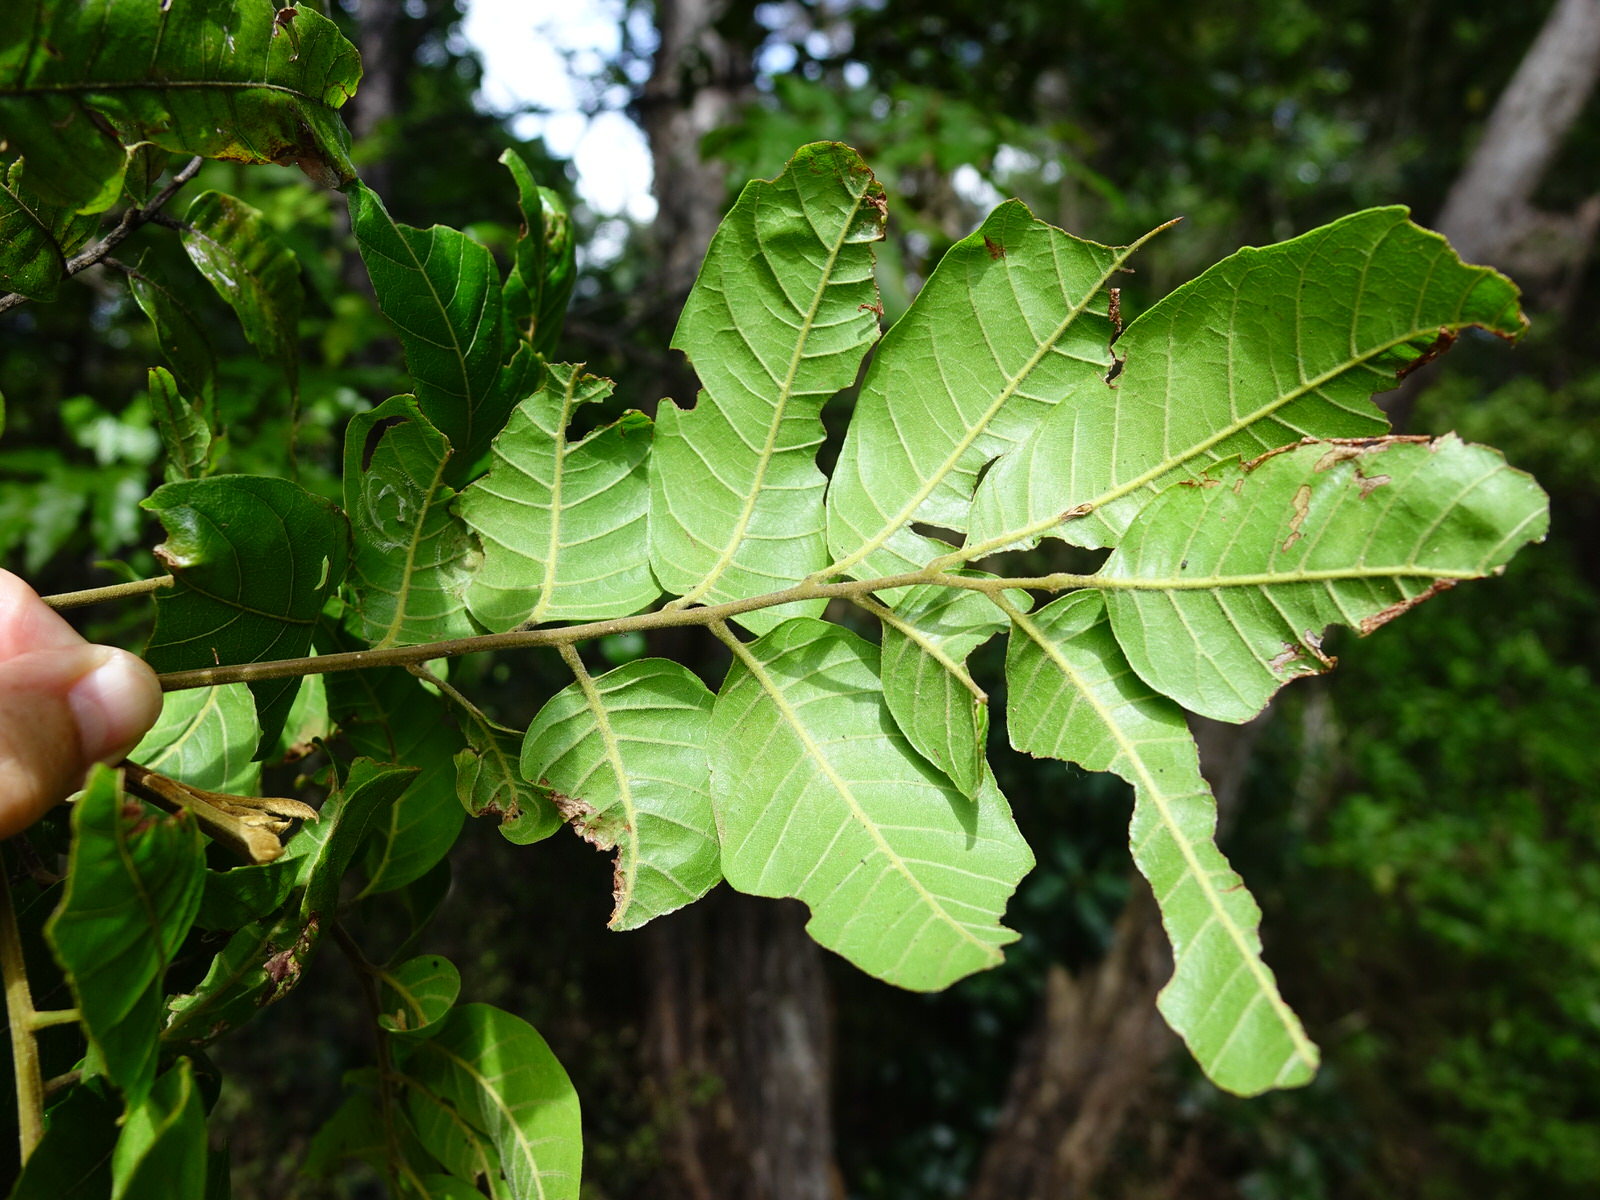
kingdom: Plantae
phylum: Tracheophyta
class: Magnoliopsida
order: Sapindales
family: Sapindaceae
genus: Alectryon
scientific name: Alectryon excelsus
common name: Three kings titoki
